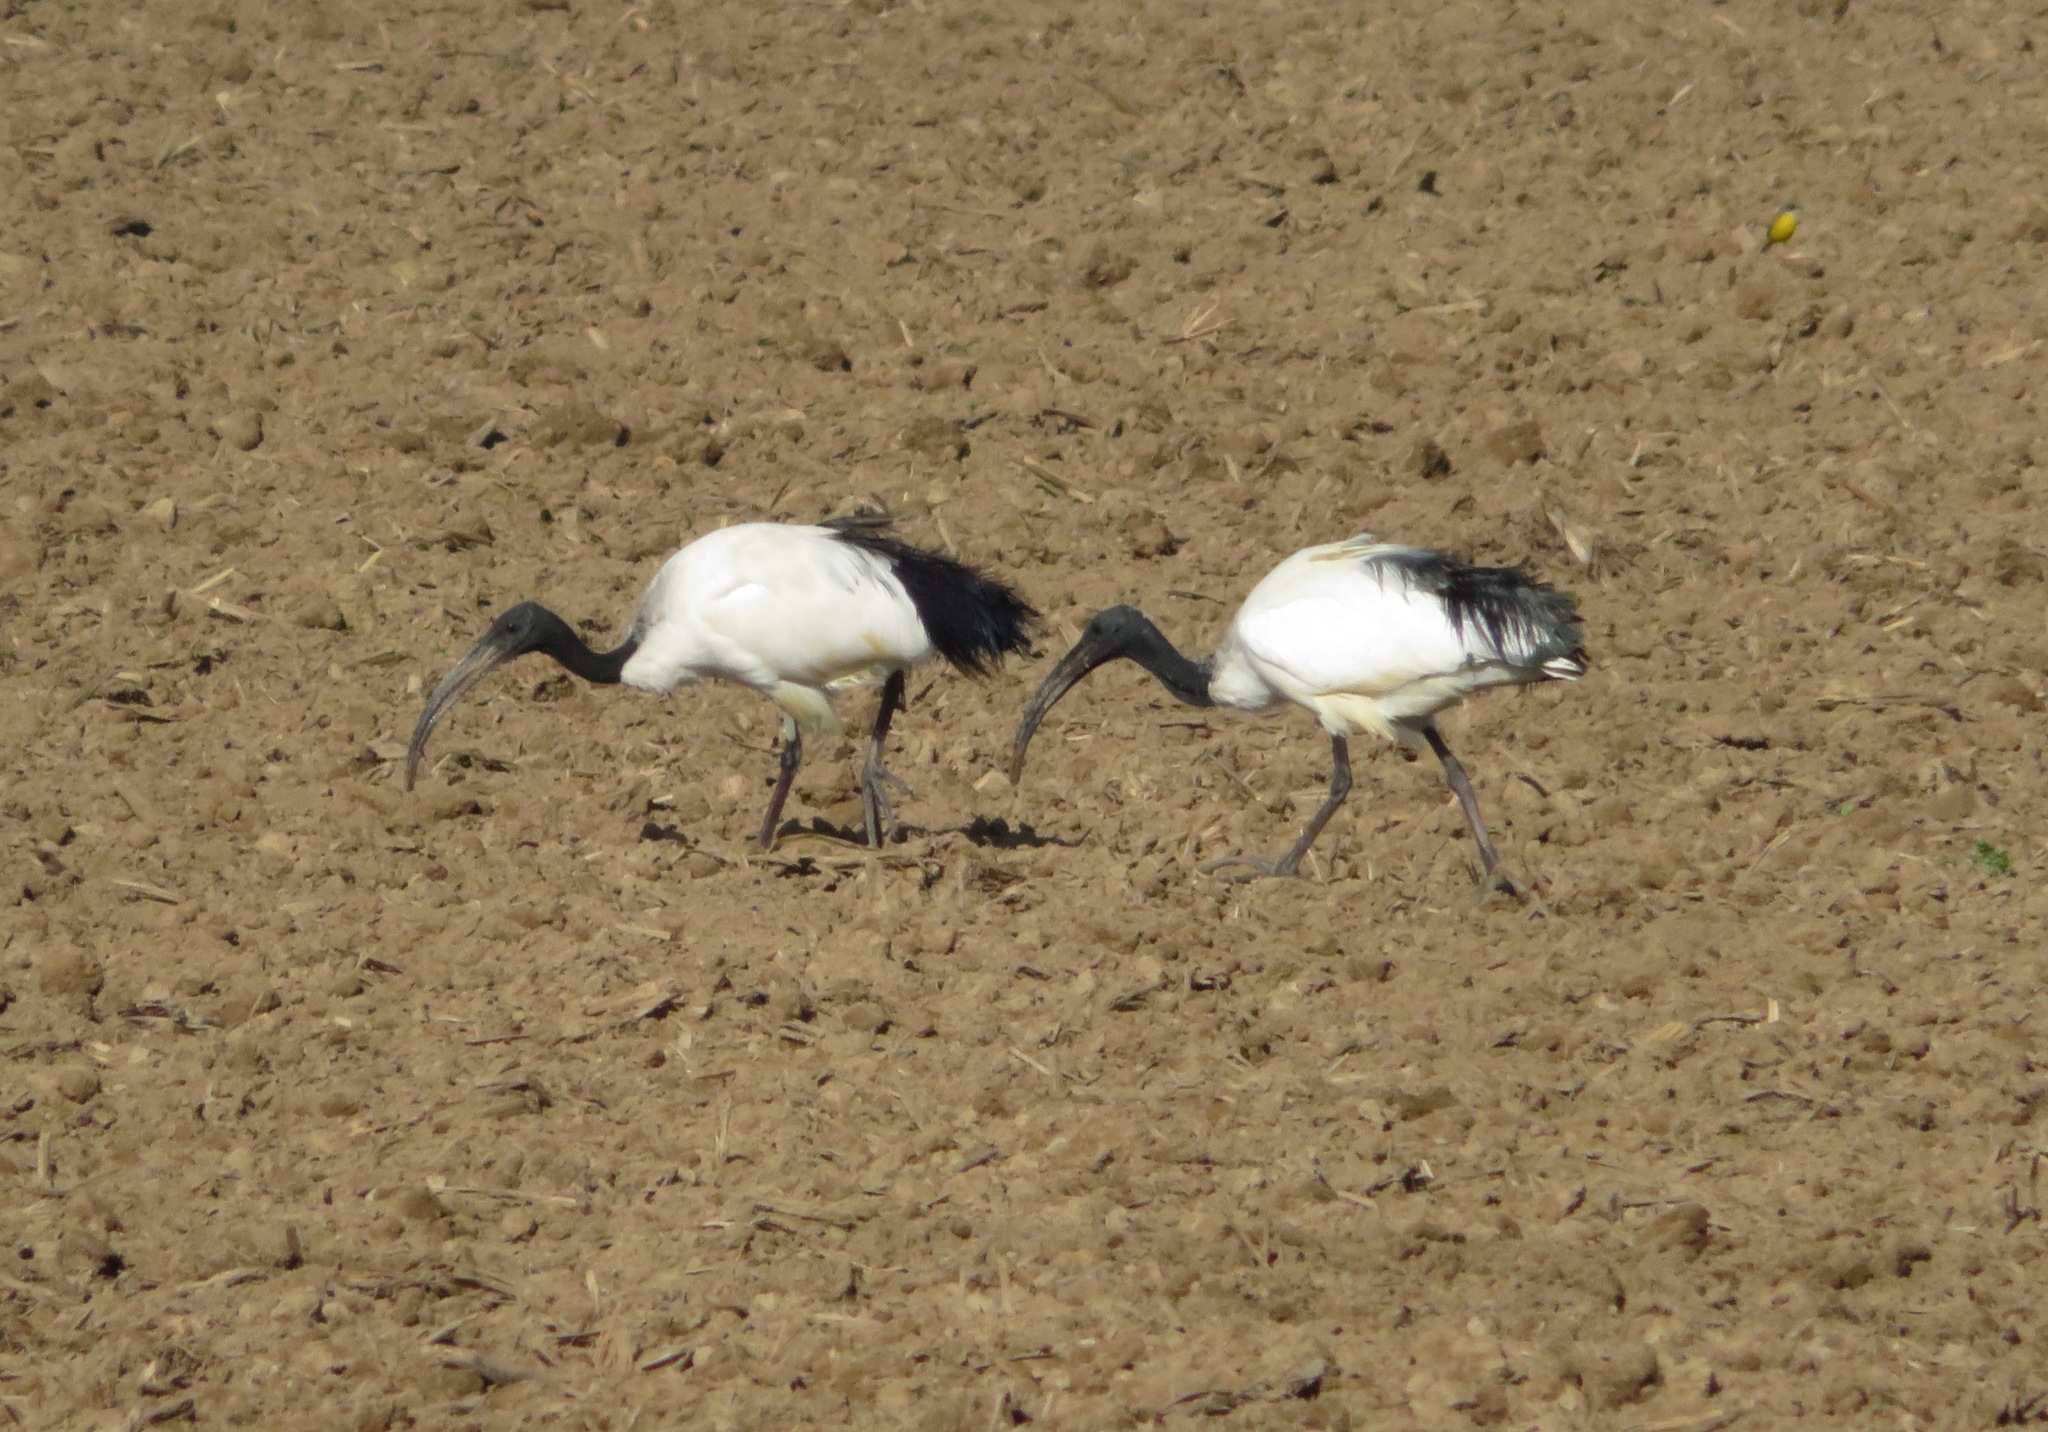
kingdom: Animalia
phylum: Chordata
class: Aves
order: Pelecaniformes
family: Threskiornithidae
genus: Threskiornis
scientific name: Threskiornis aethiopicus
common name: Sacred ibis
